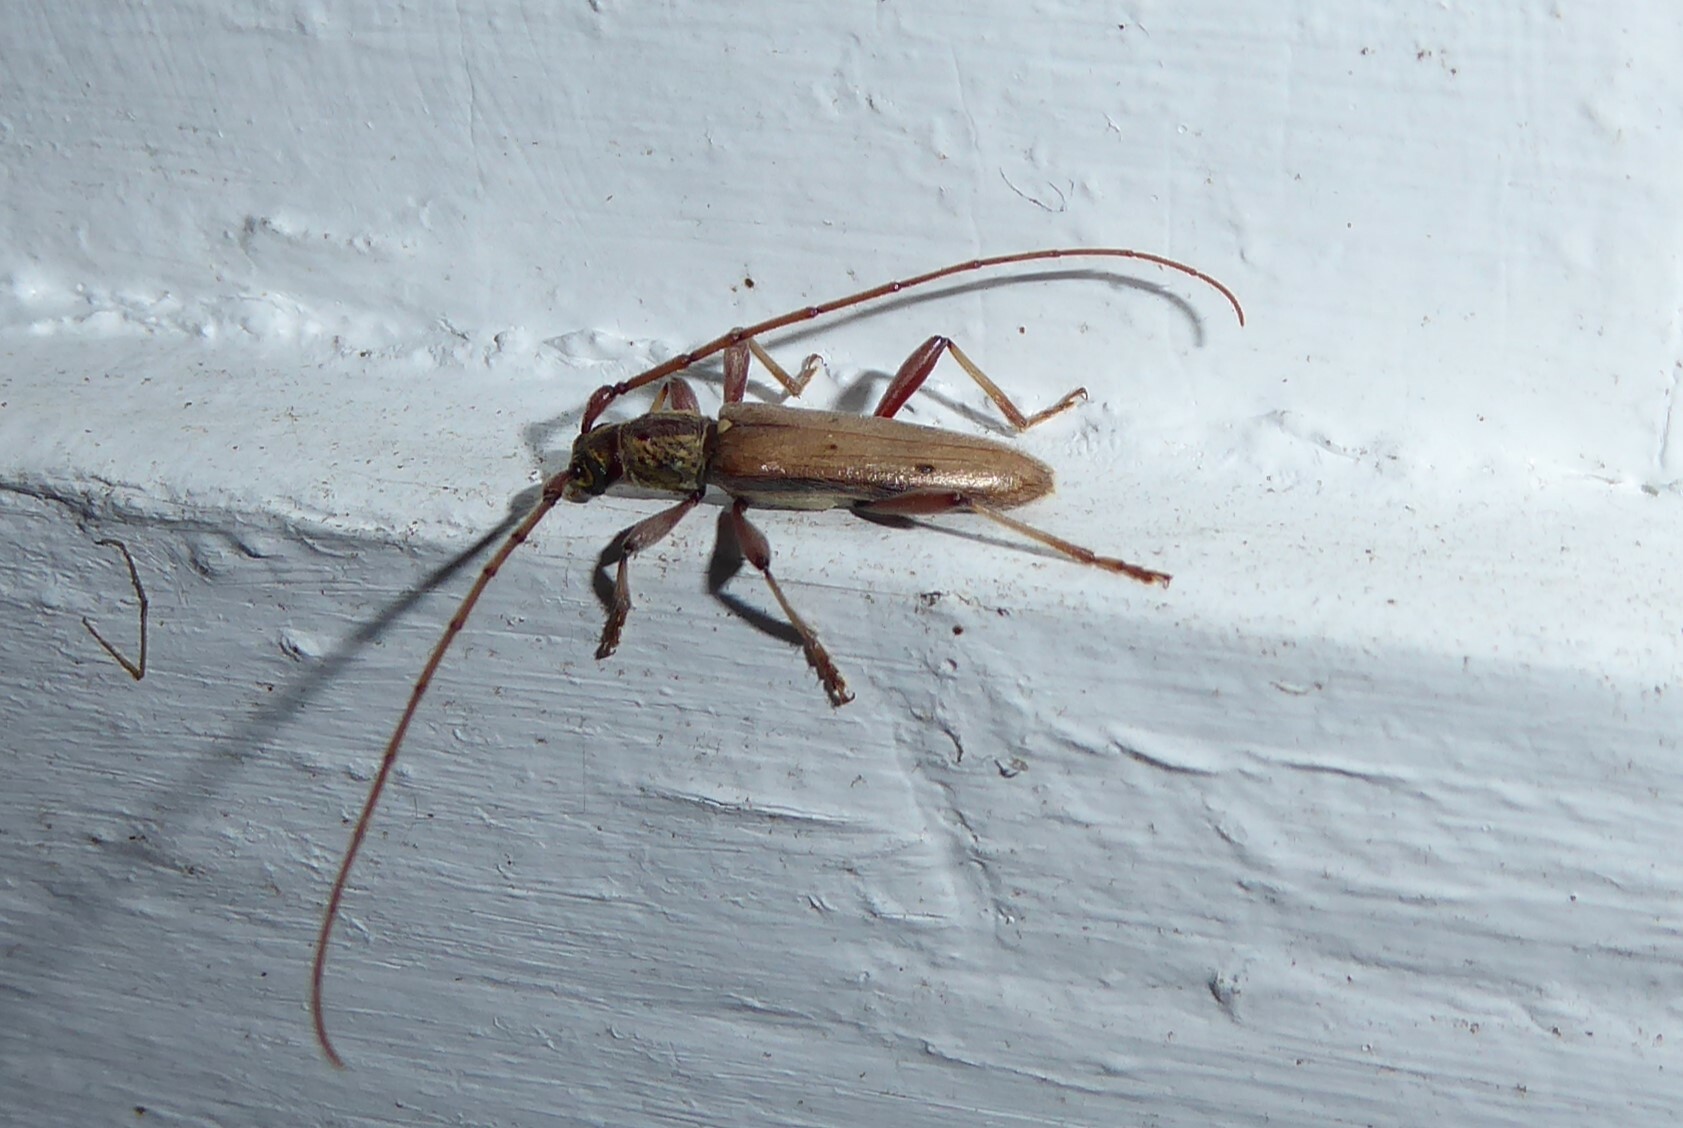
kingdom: Animalia
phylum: Arthropoda
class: Insecta
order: Coleoptera
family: Cerambycidae
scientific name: Cerambycidae
